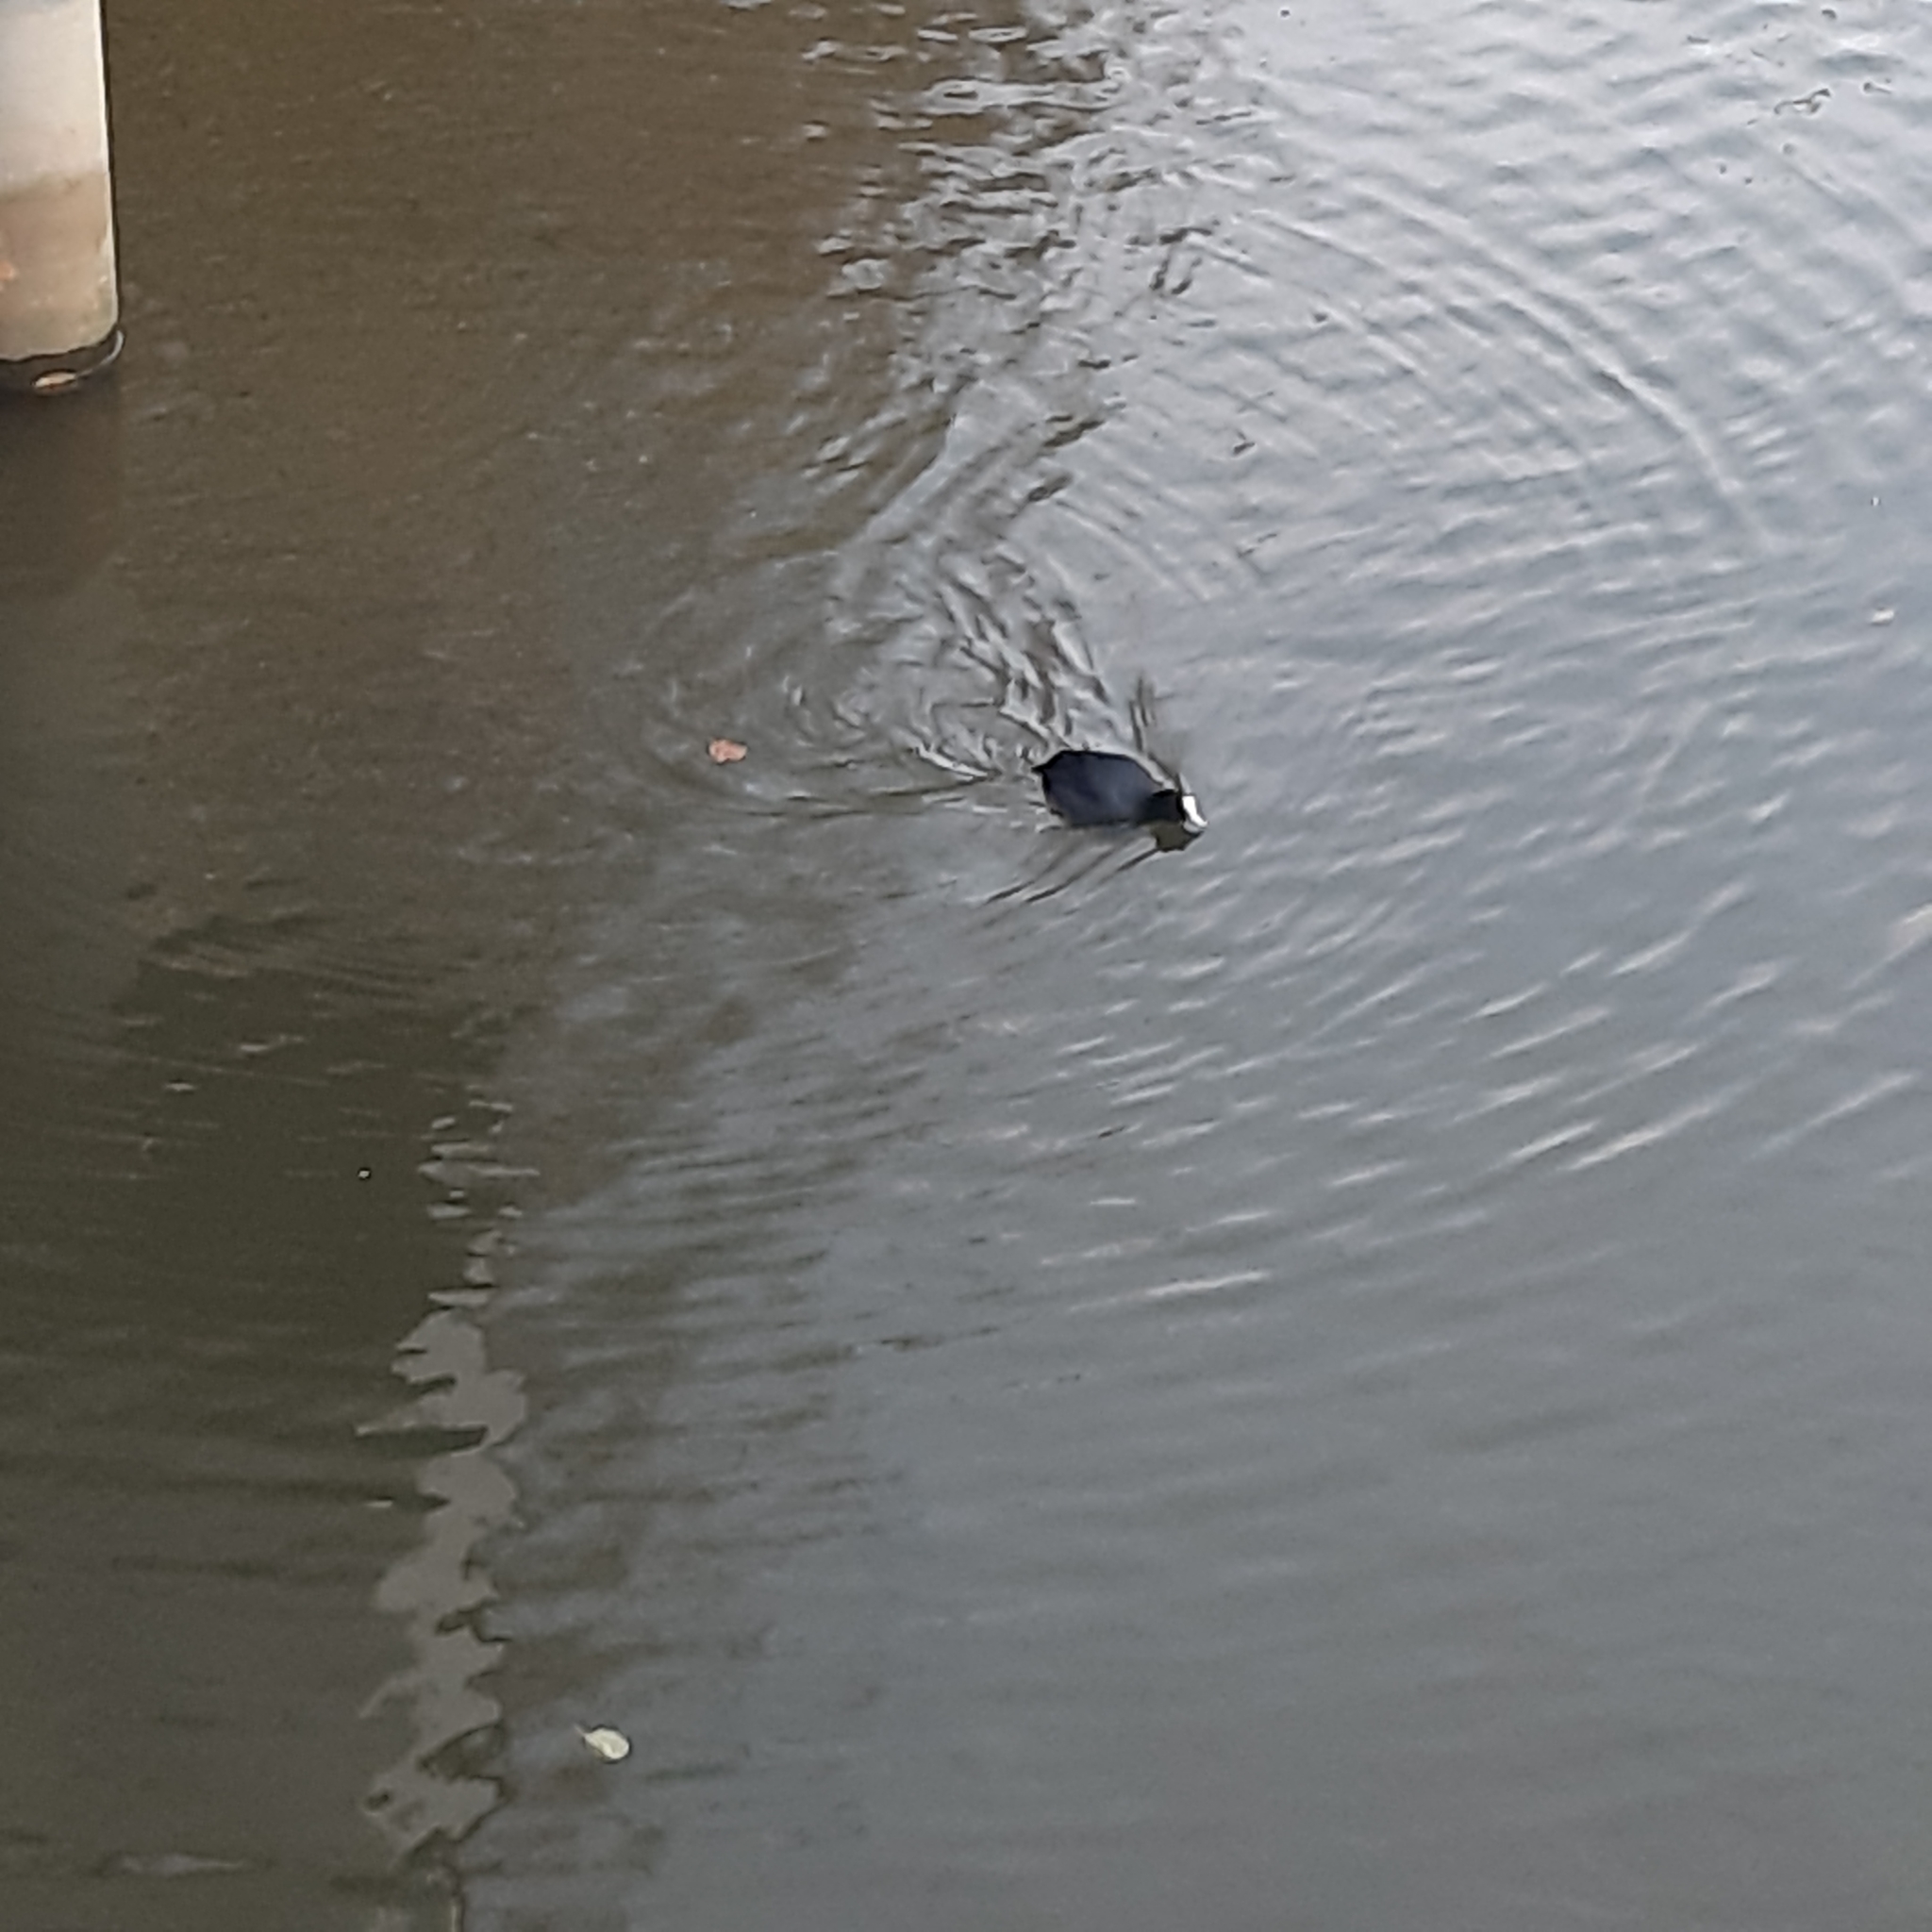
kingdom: Animalia
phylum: Chordata
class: Aves
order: Gruiformes
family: Rallidae
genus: Fulica
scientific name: Fulica atra
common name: Eurasian coot
